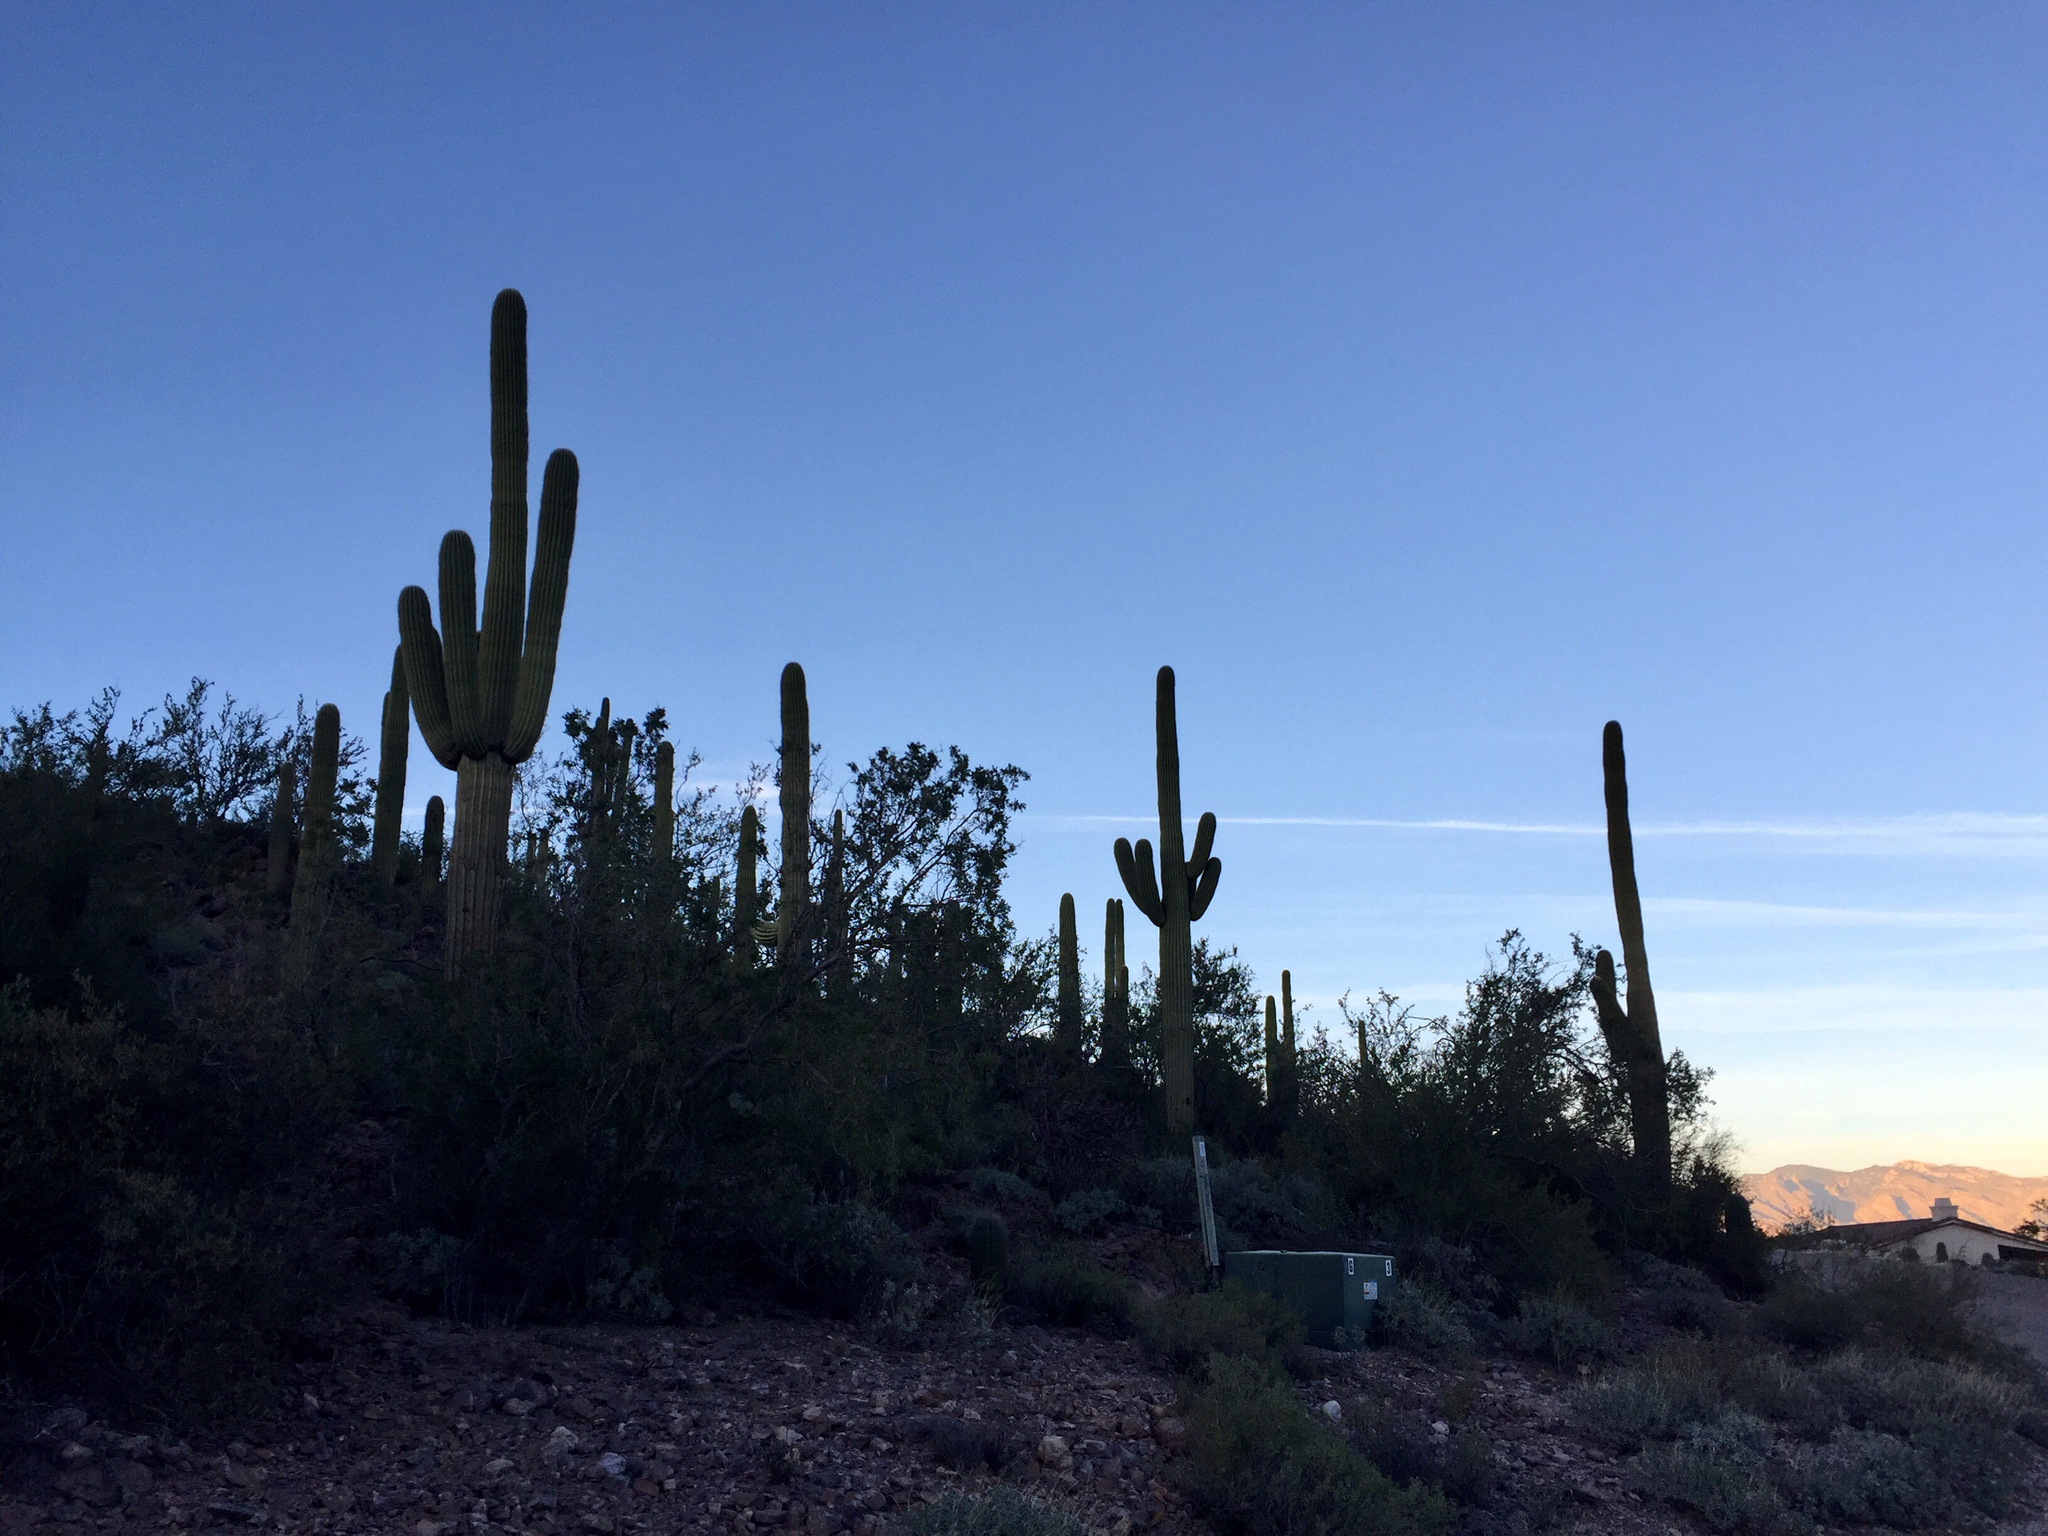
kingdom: Plantae
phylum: Tracheophyta
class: Magnoliopsida
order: Caryophyllales
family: Cactaceae
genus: Carnegiea
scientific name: Carnegiea gigantea
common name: Saguaro
